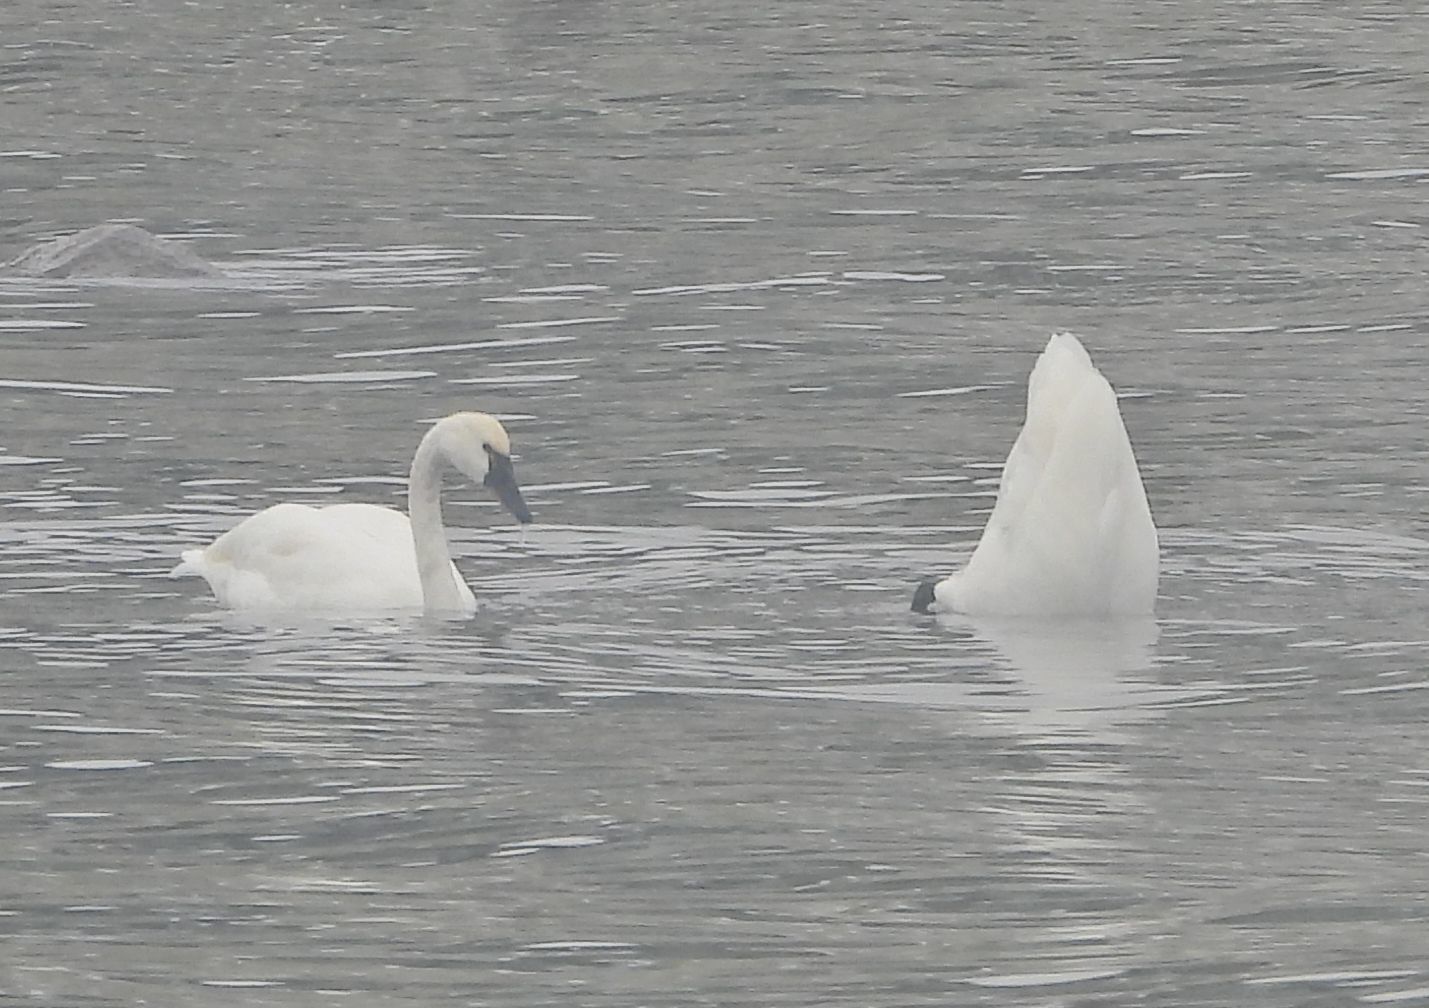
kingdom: Animalia
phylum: Chordata
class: Aves
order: Anseriformes
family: Anatidae
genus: Cygnus
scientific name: Cygnus columbianus
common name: Tundra swan
